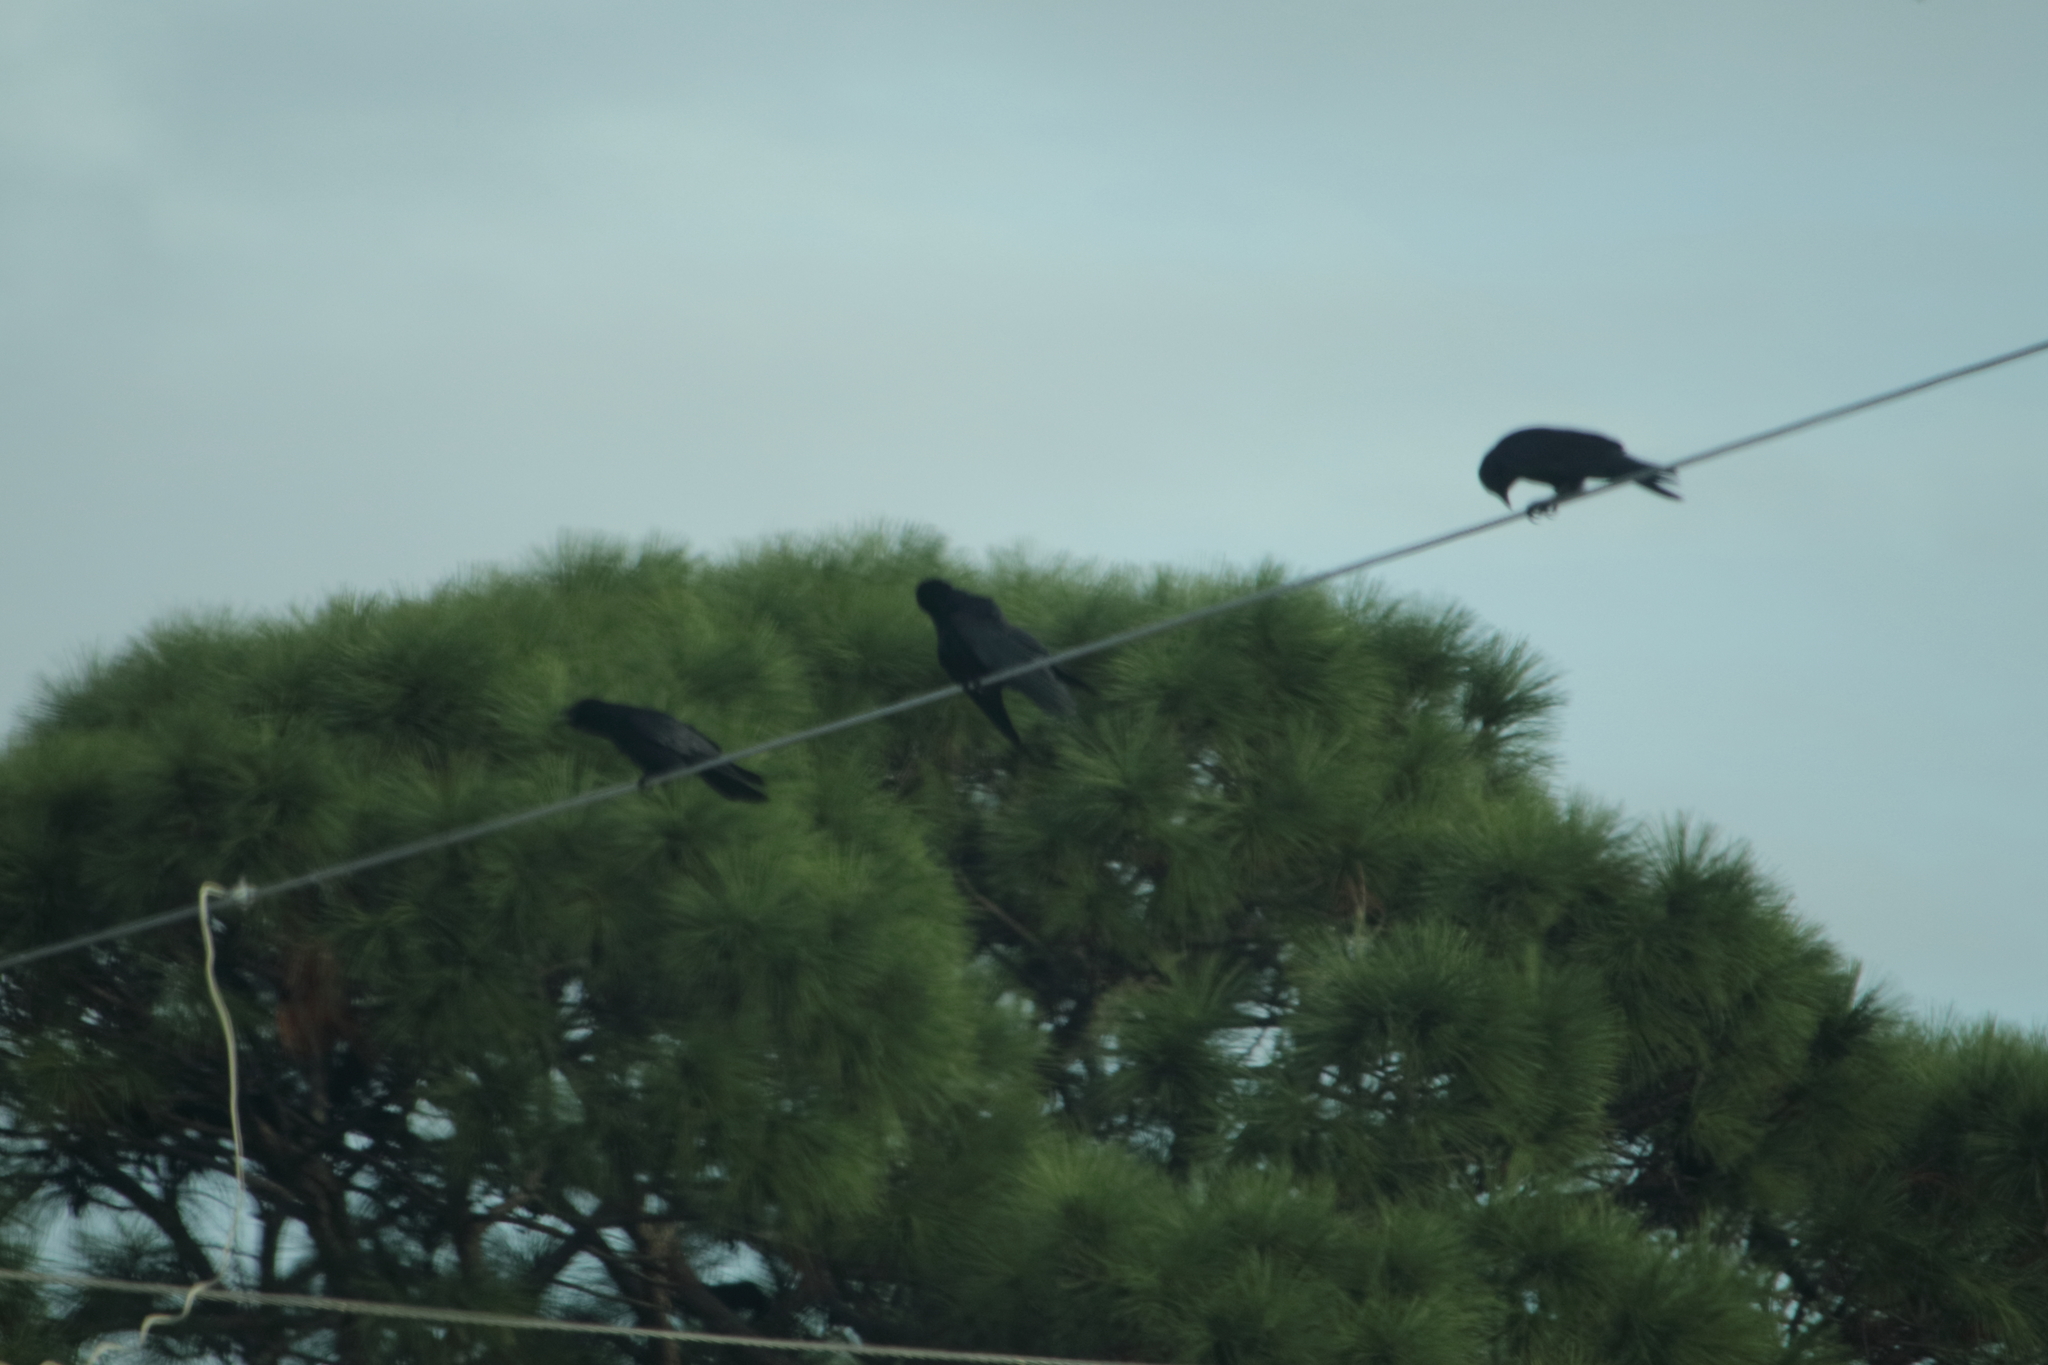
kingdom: Animalia
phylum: Chordata
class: Aves
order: Passeriformes
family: Corvidae
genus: Corvus
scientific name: Corvus ossifragus
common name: Fish crow
